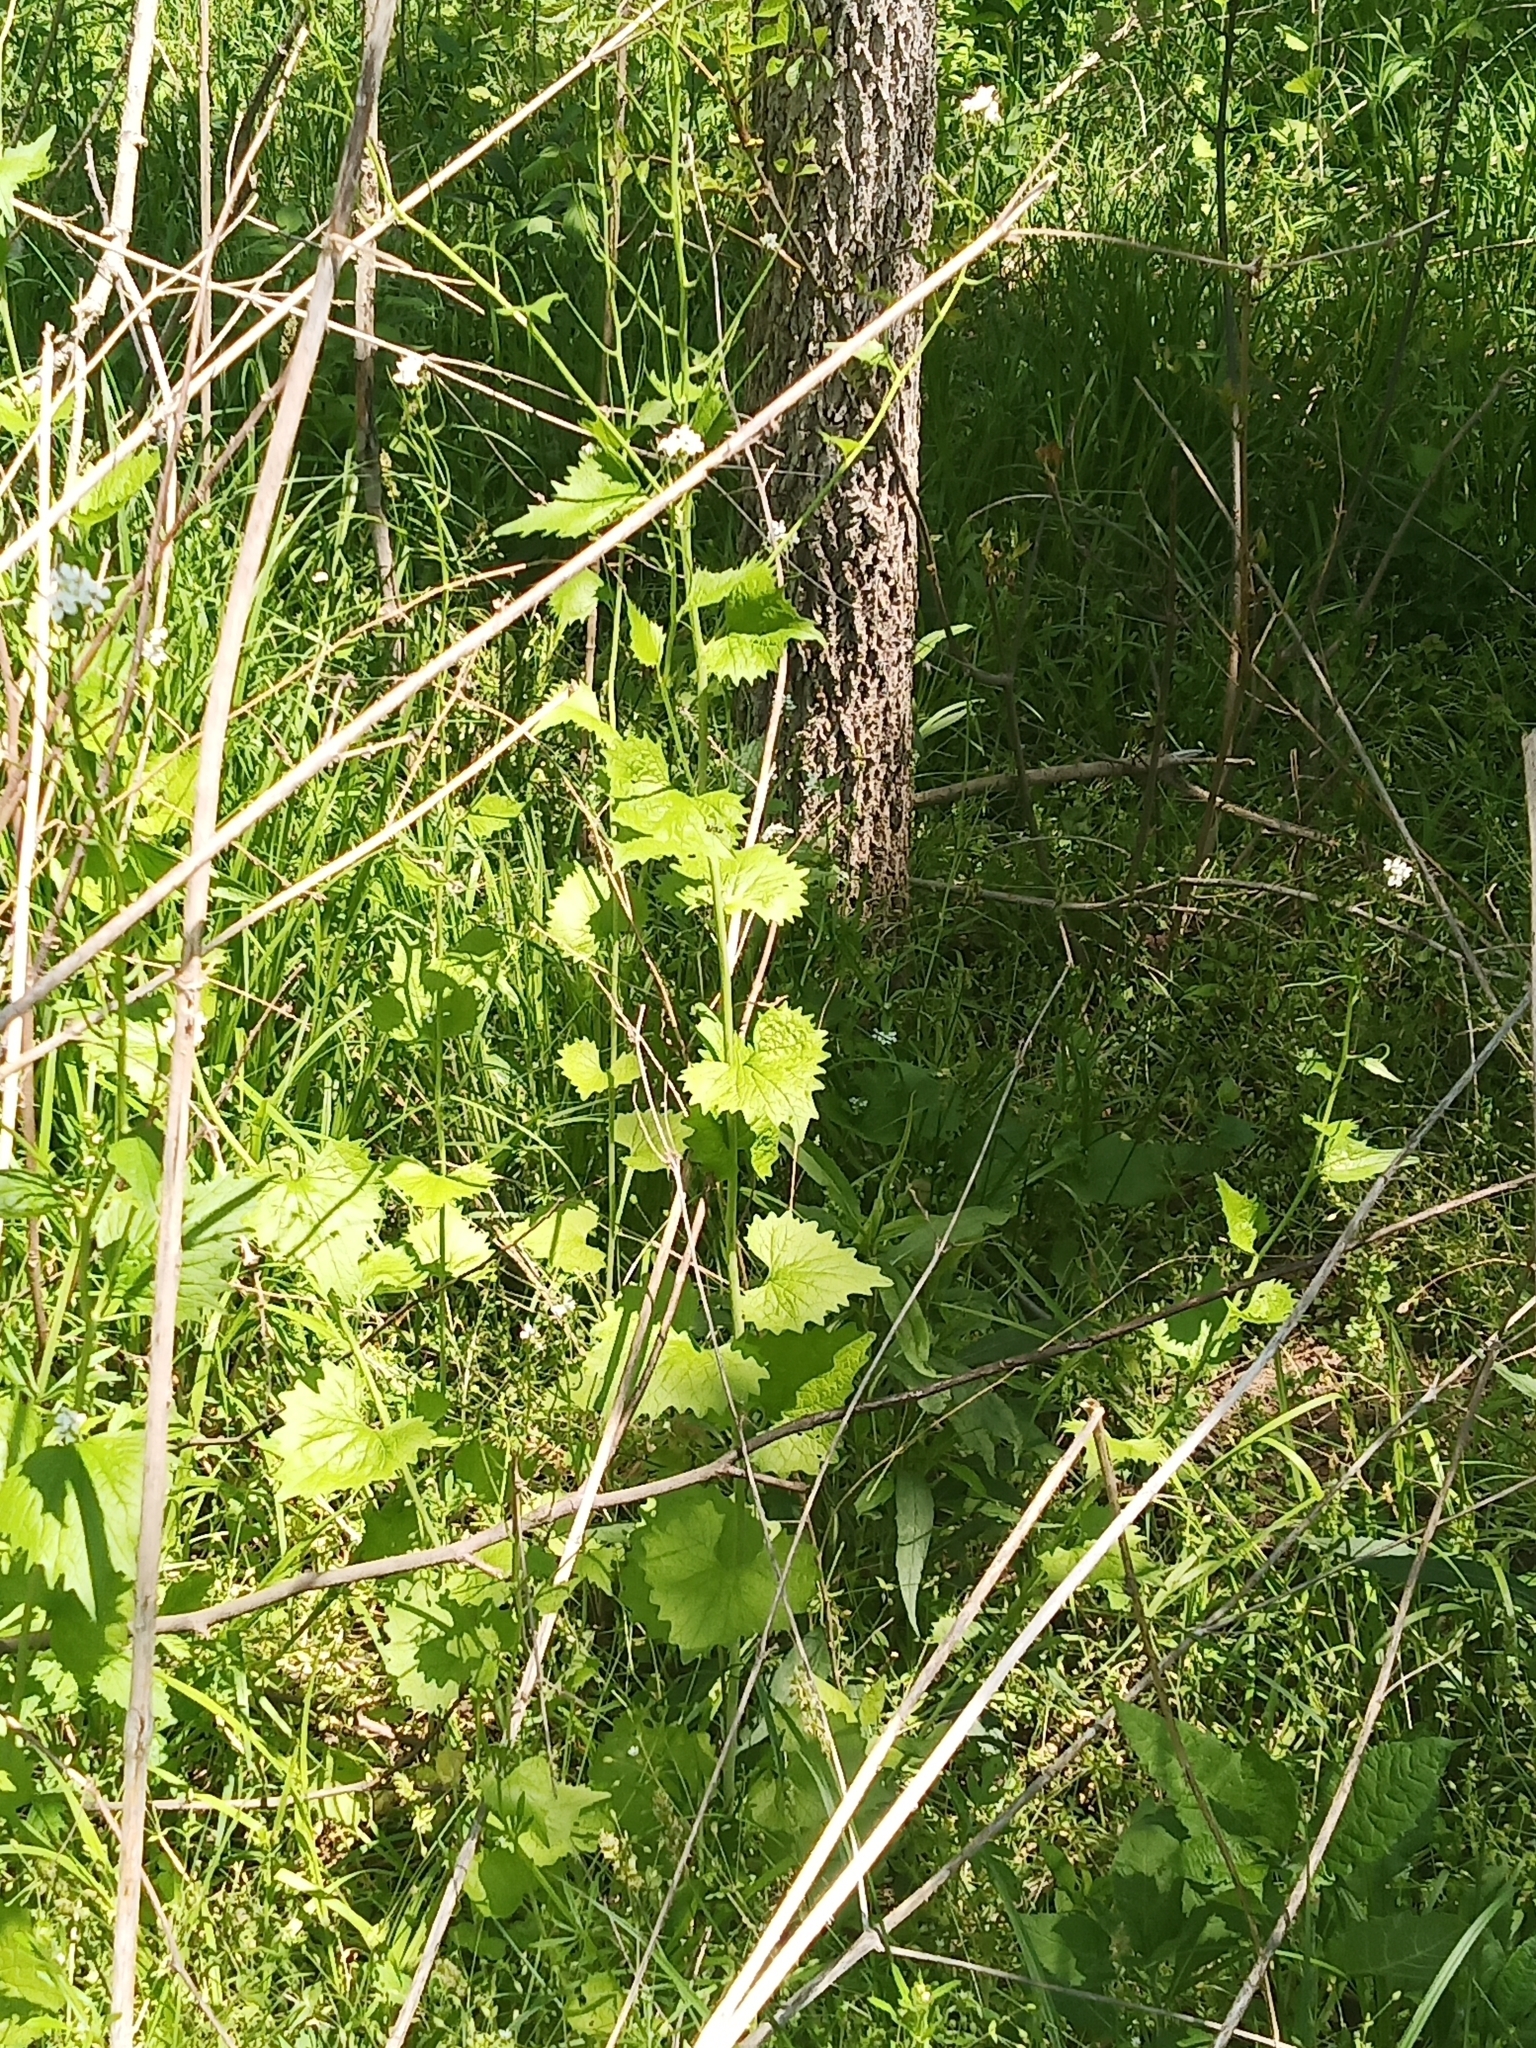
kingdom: Plantae
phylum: Tracheophyta
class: Magnoliopsida
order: Brassicales
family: Brassicaceae
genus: Alliaria
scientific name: Alliaria petiolata
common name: Garlic mustard
